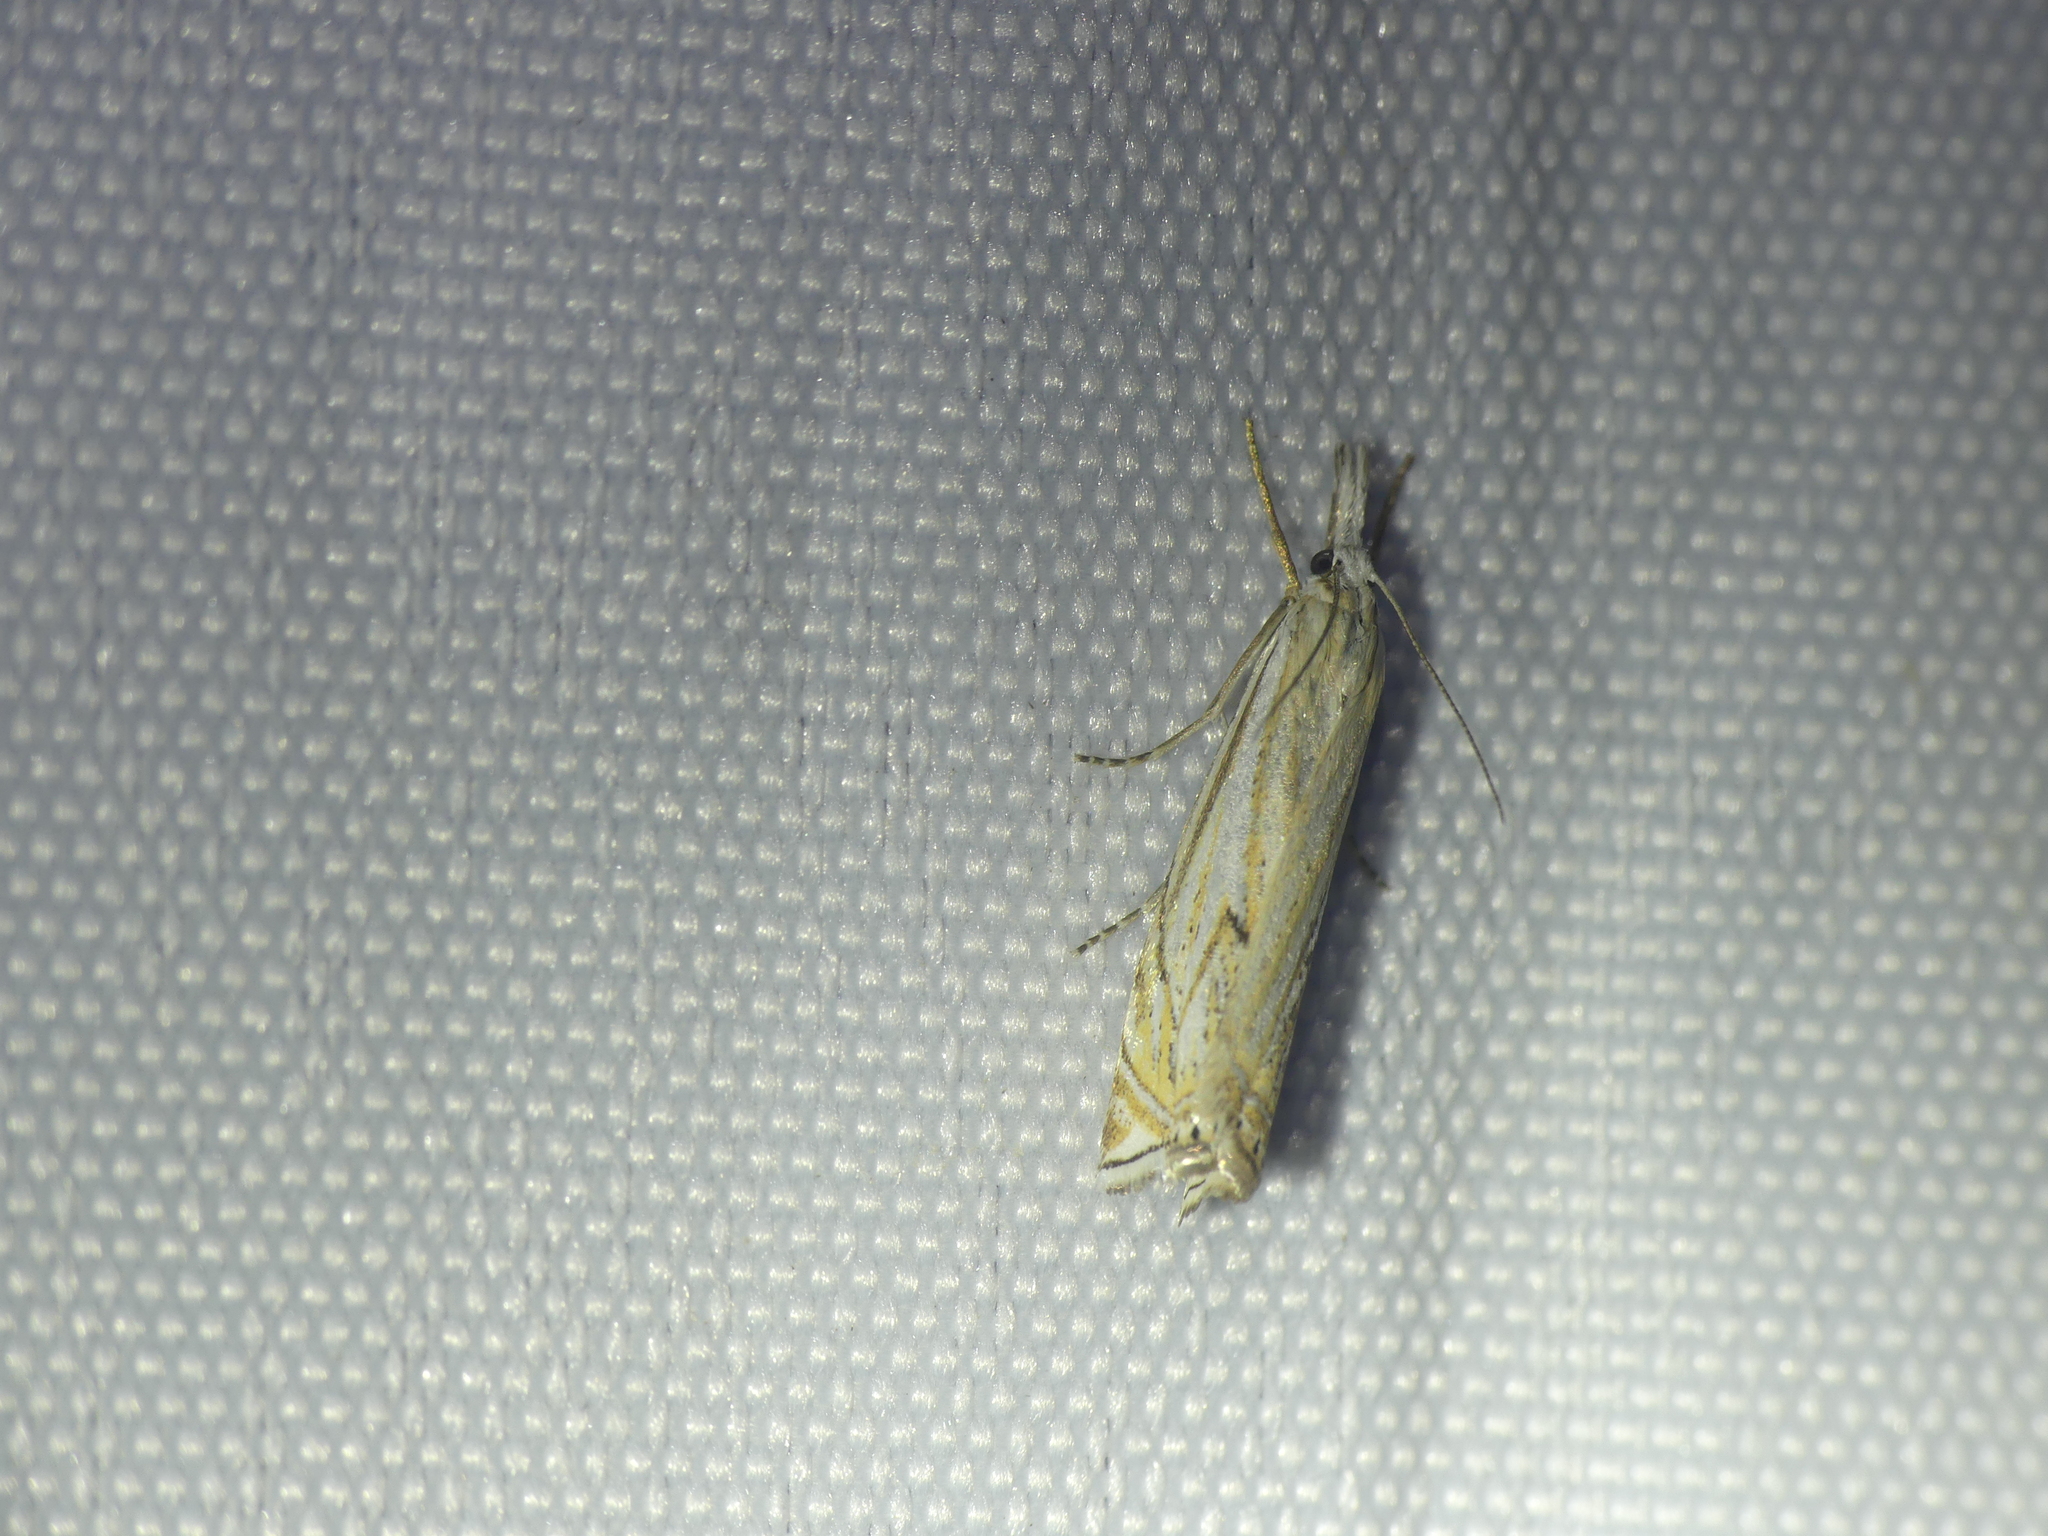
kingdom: Animalia
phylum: Arthropoda
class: Insecta
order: Lepidoptera
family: Crambidae
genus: Crambus
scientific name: Crambus nemorella
